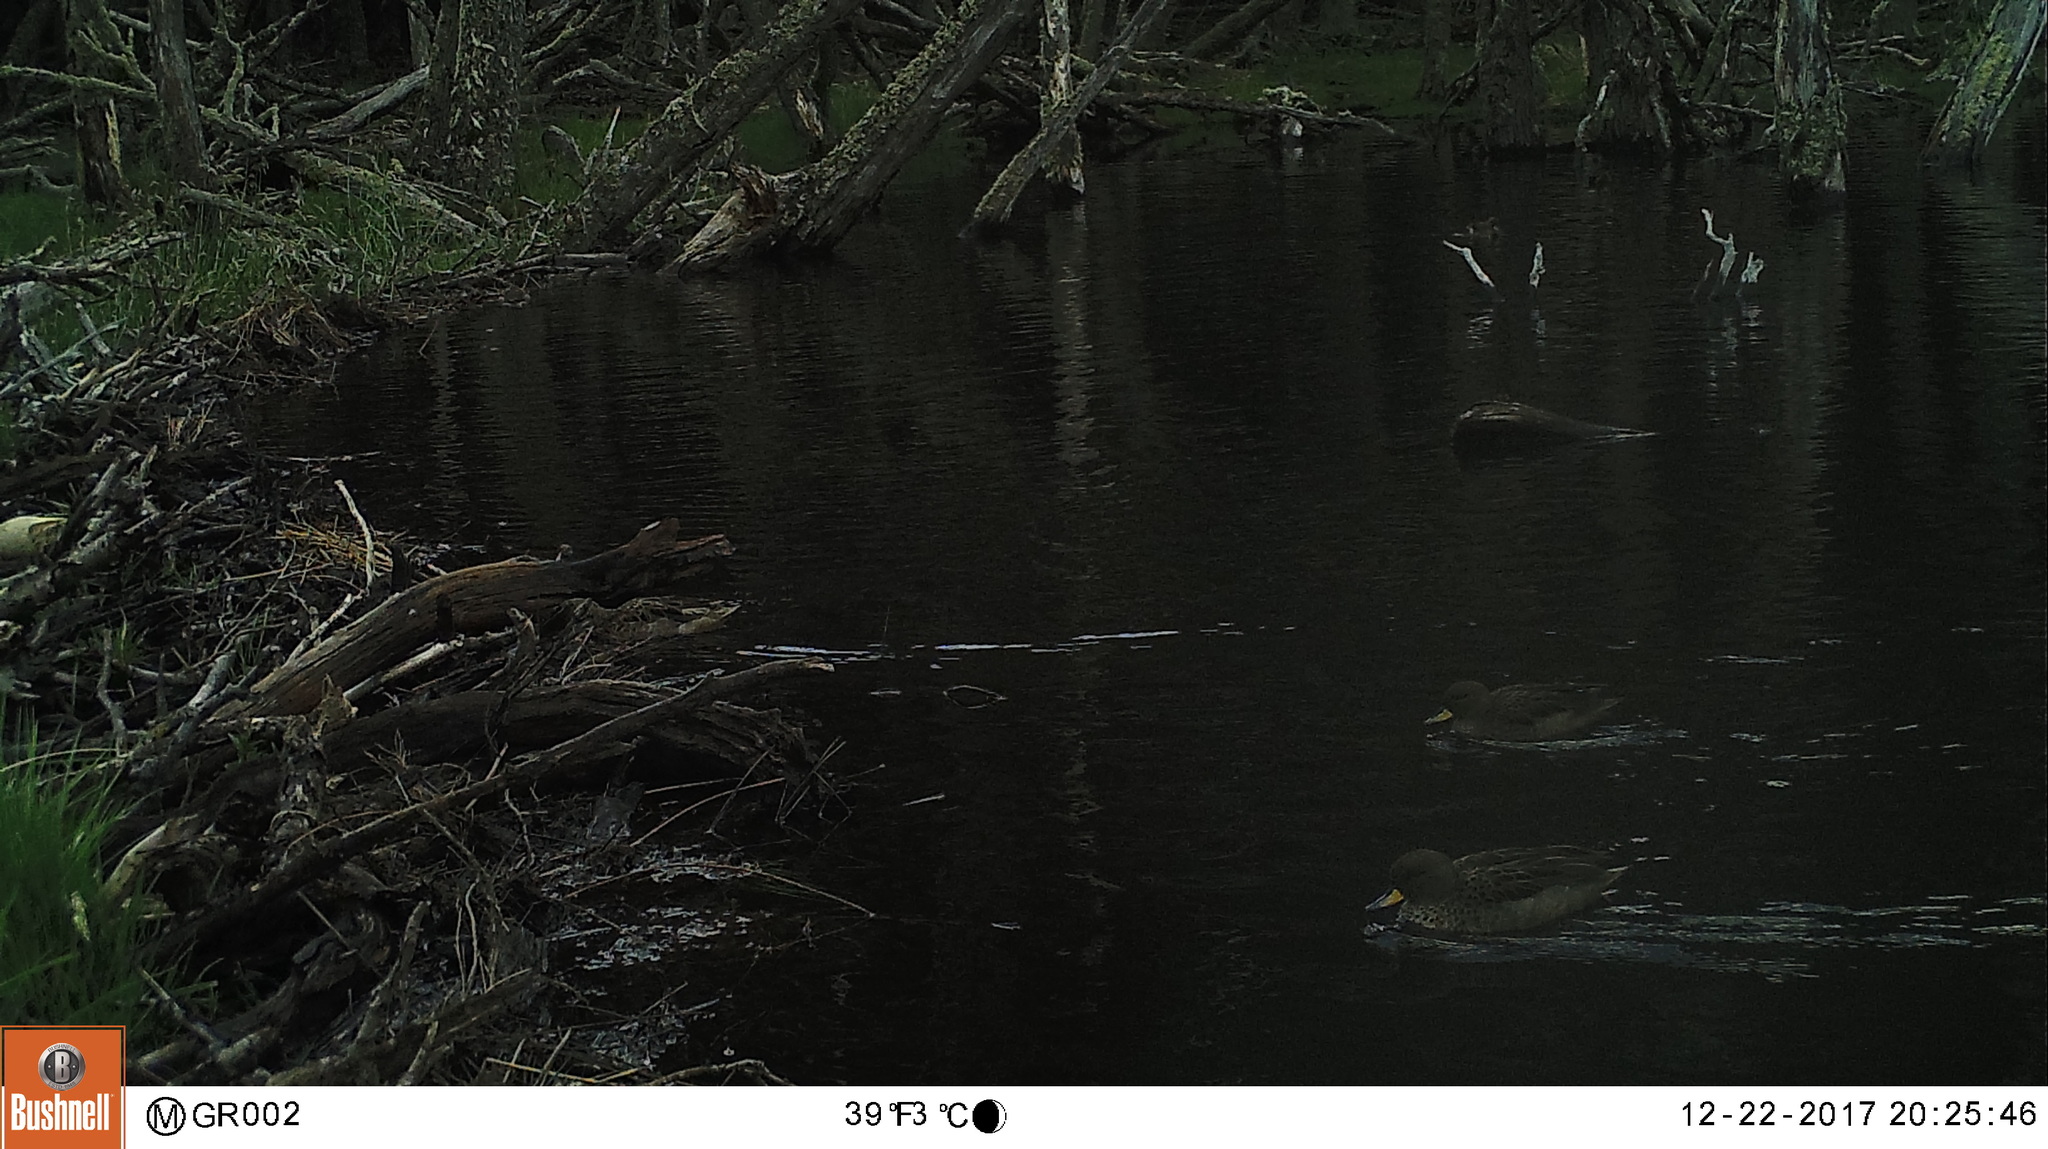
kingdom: Animalia
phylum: Chordata
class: Aves
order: Anseriformes
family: Anatidae
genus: Anas
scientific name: Anas flavirostris
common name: Yellow-billed teal
